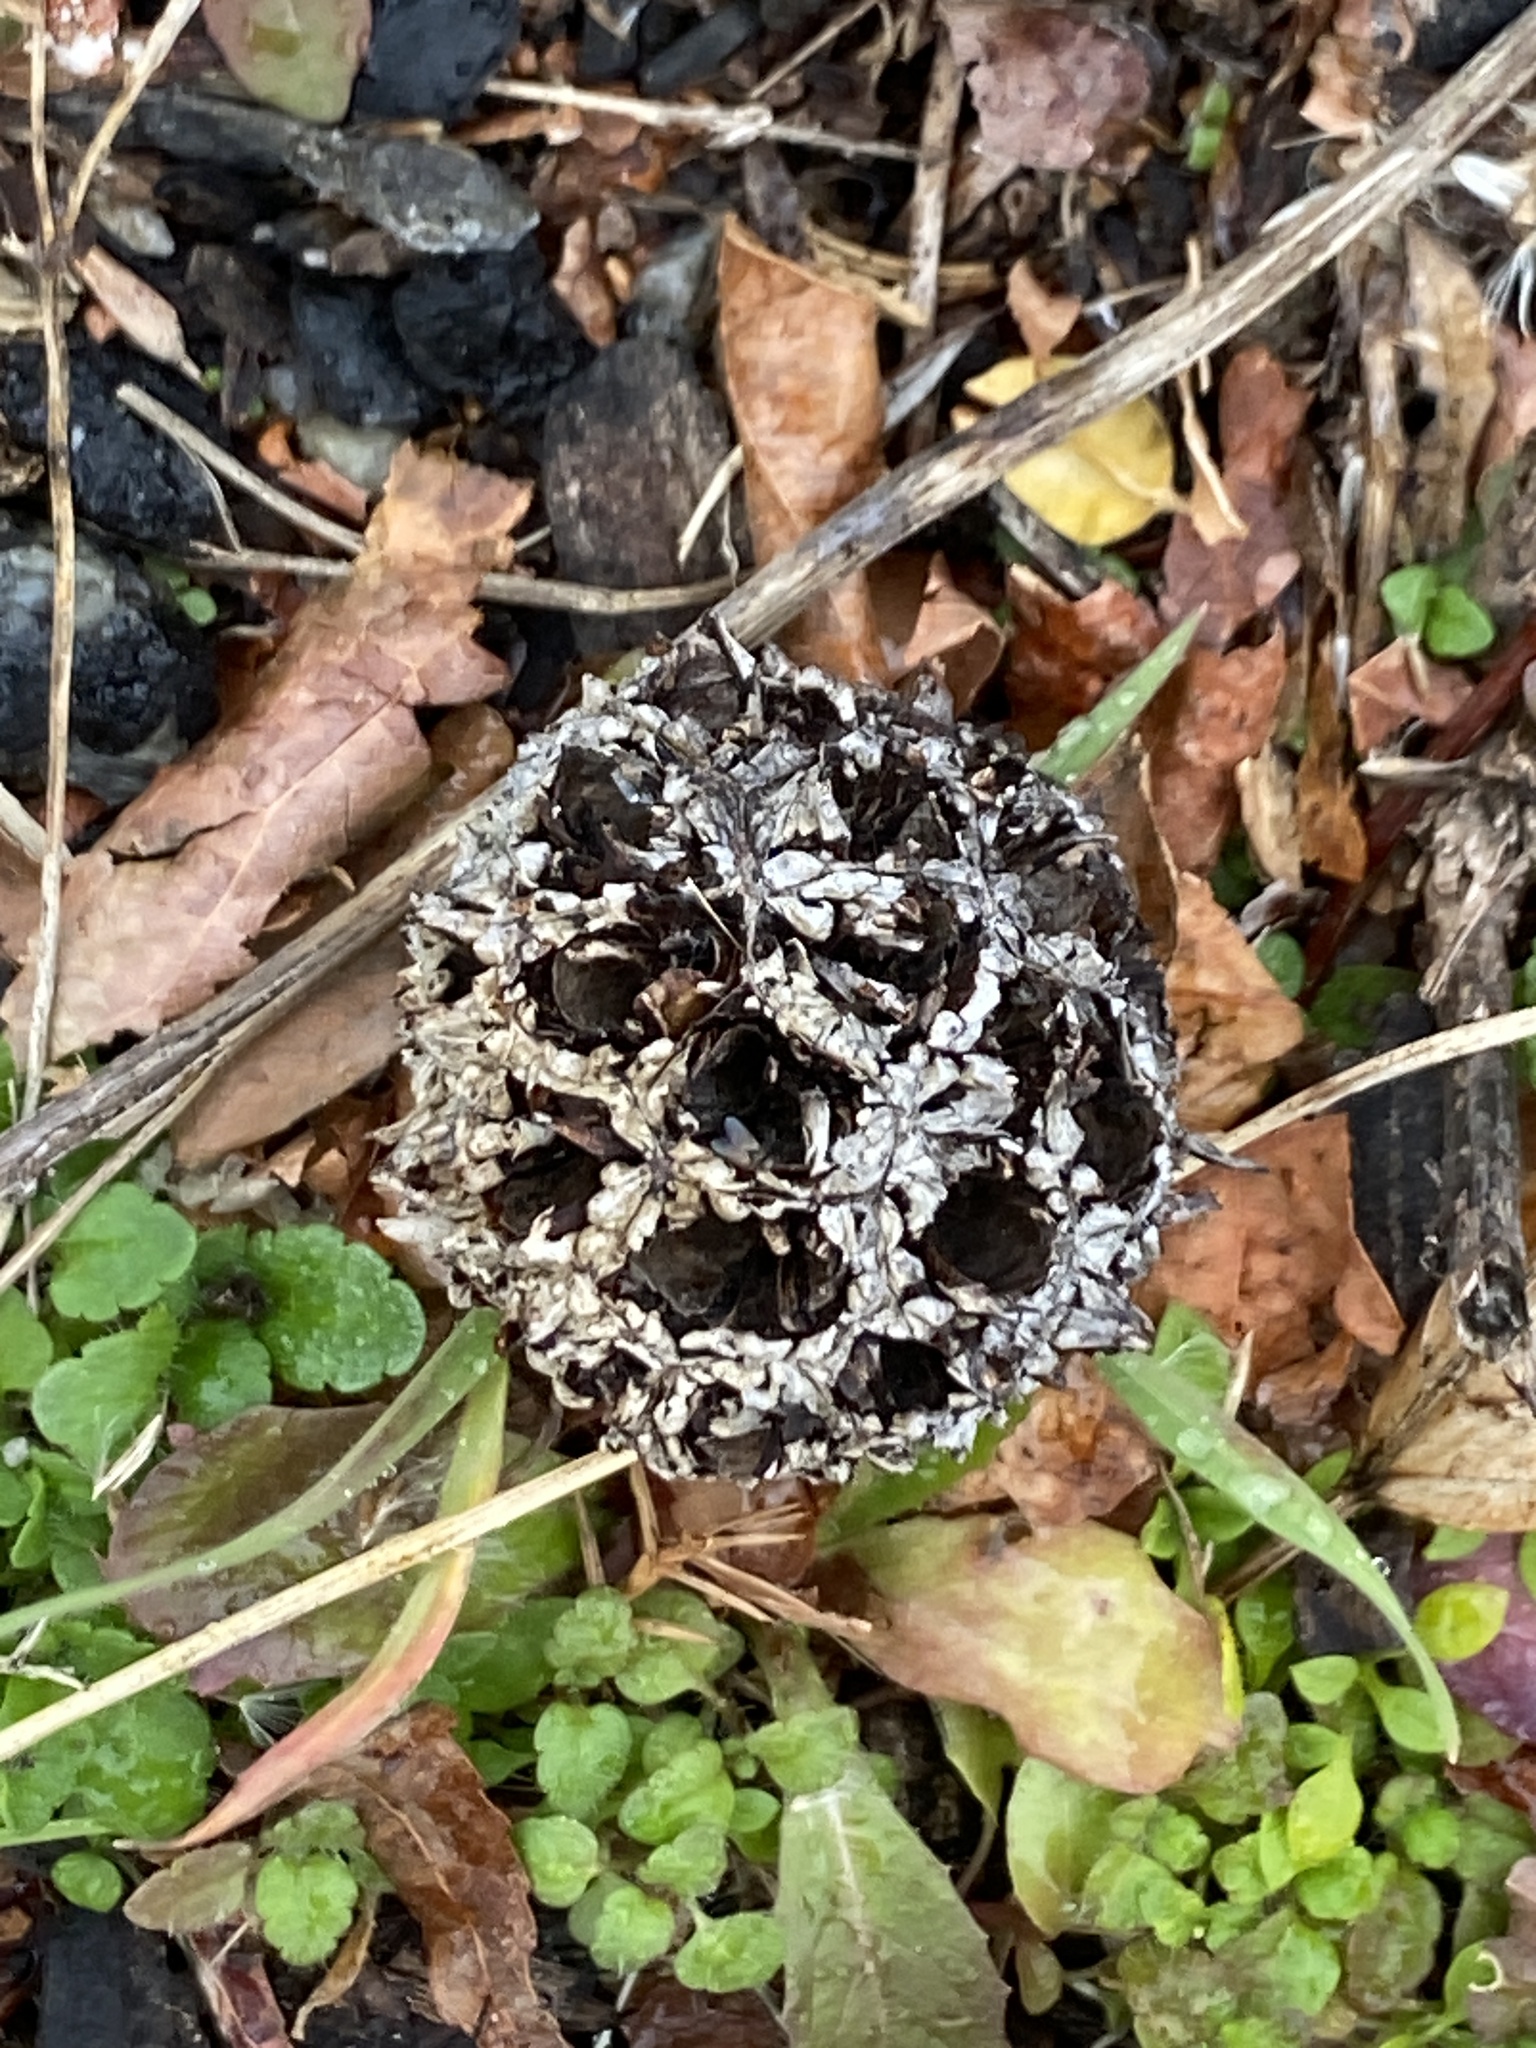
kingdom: Plantae
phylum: Tracheophyta
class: Magnoliopsida
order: Saxifragales
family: Altingiaceae
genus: Liquidambar
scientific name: Liquidambar styraciflua
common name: Sweet gum
